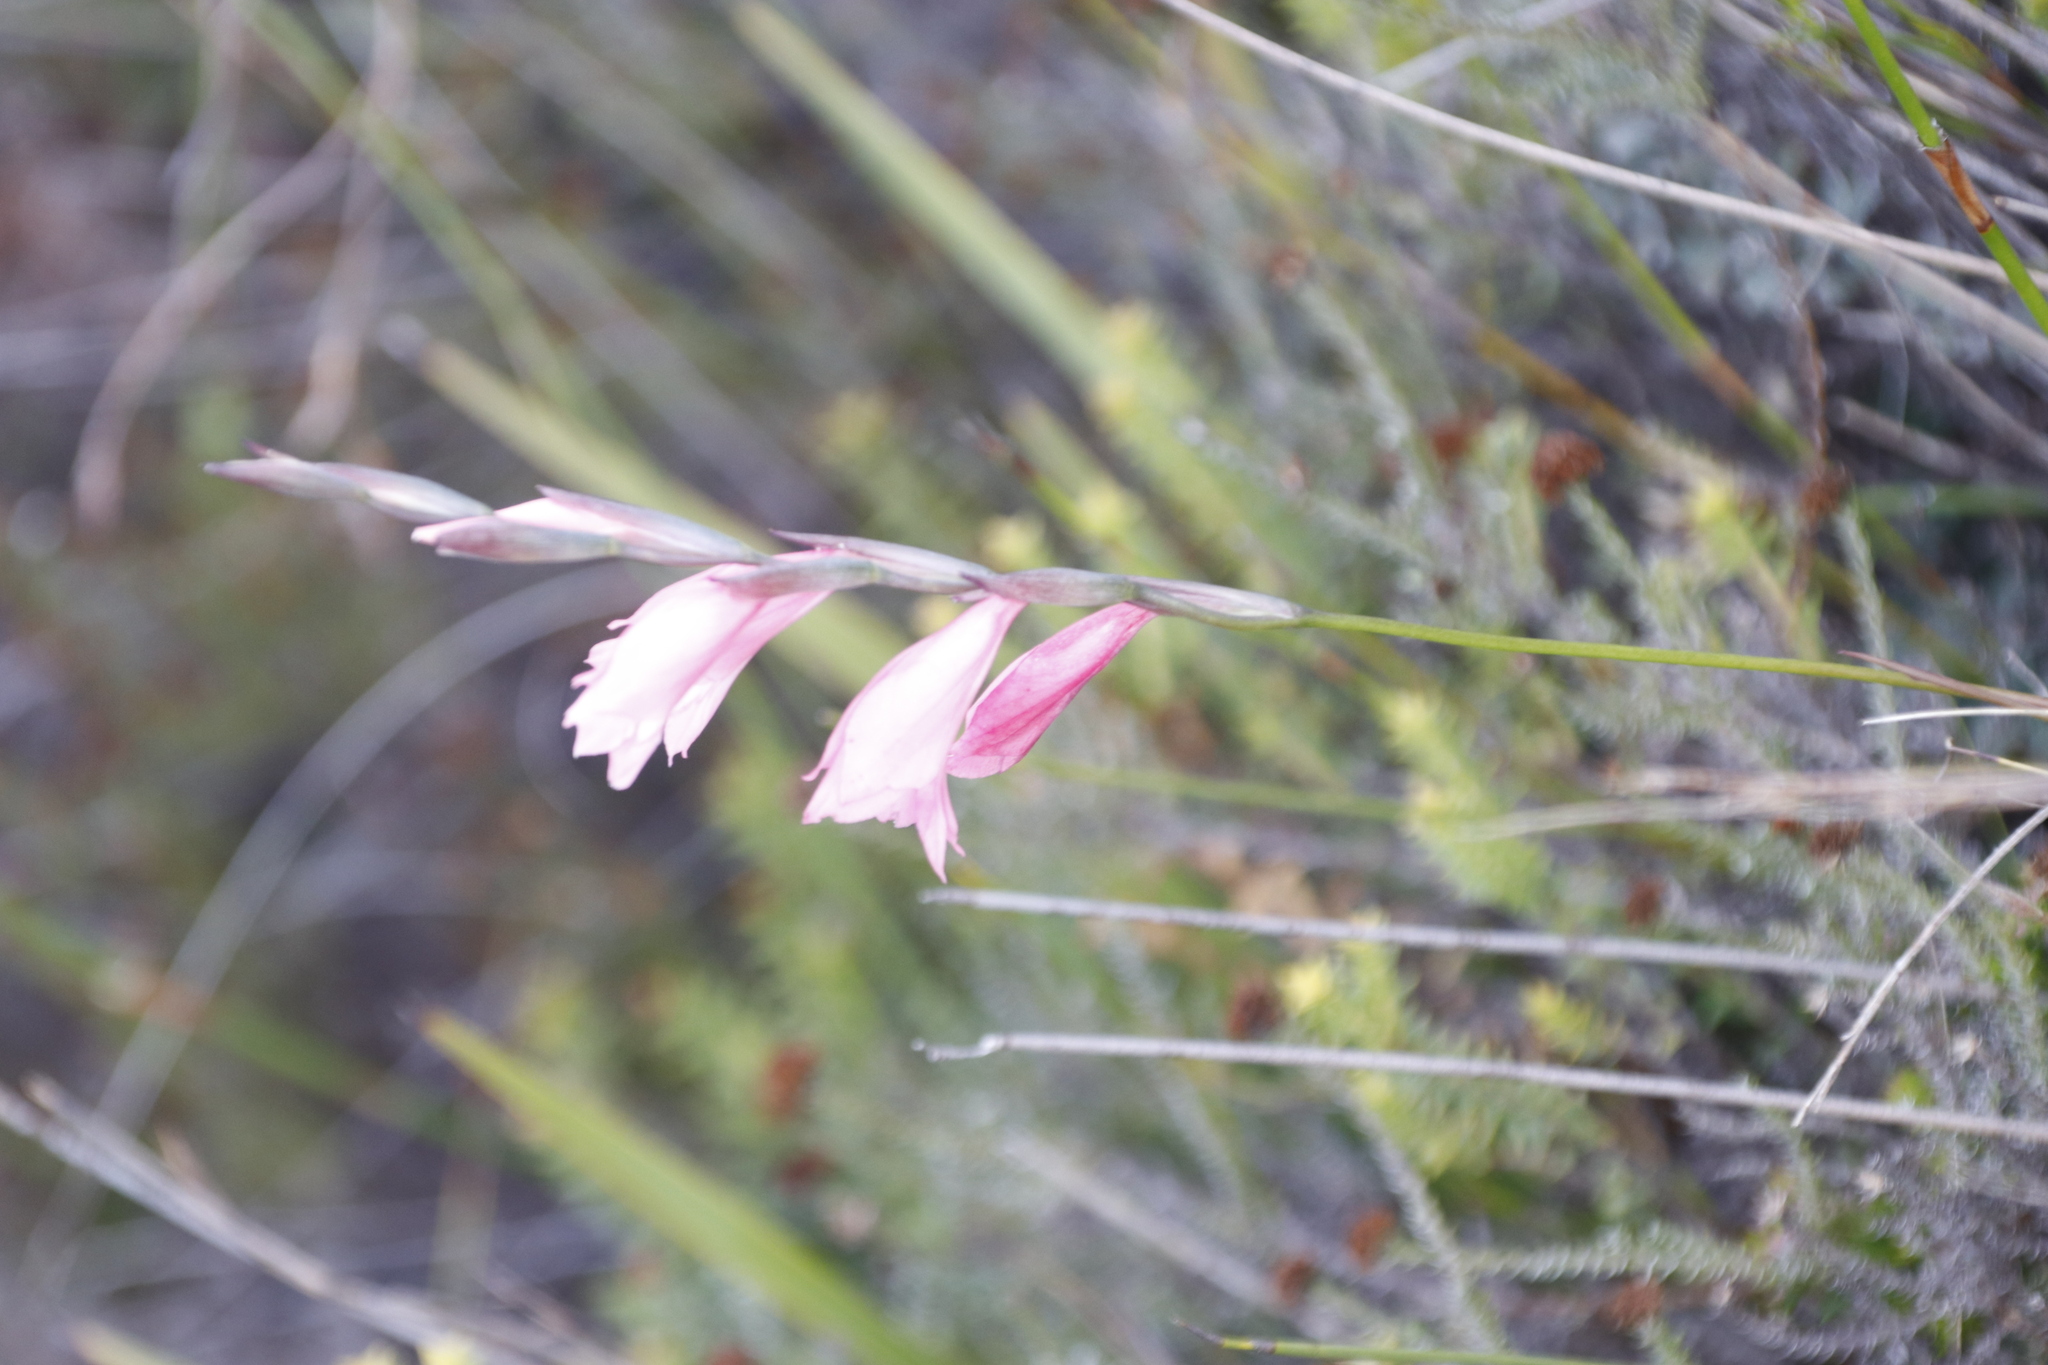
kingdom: Plantae
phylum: Tracheophyta
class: Liliopsida
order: Asparagales
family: Iridaceae
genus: Gladiolus
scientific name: Gladiolus brevifolius
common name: March pypie
